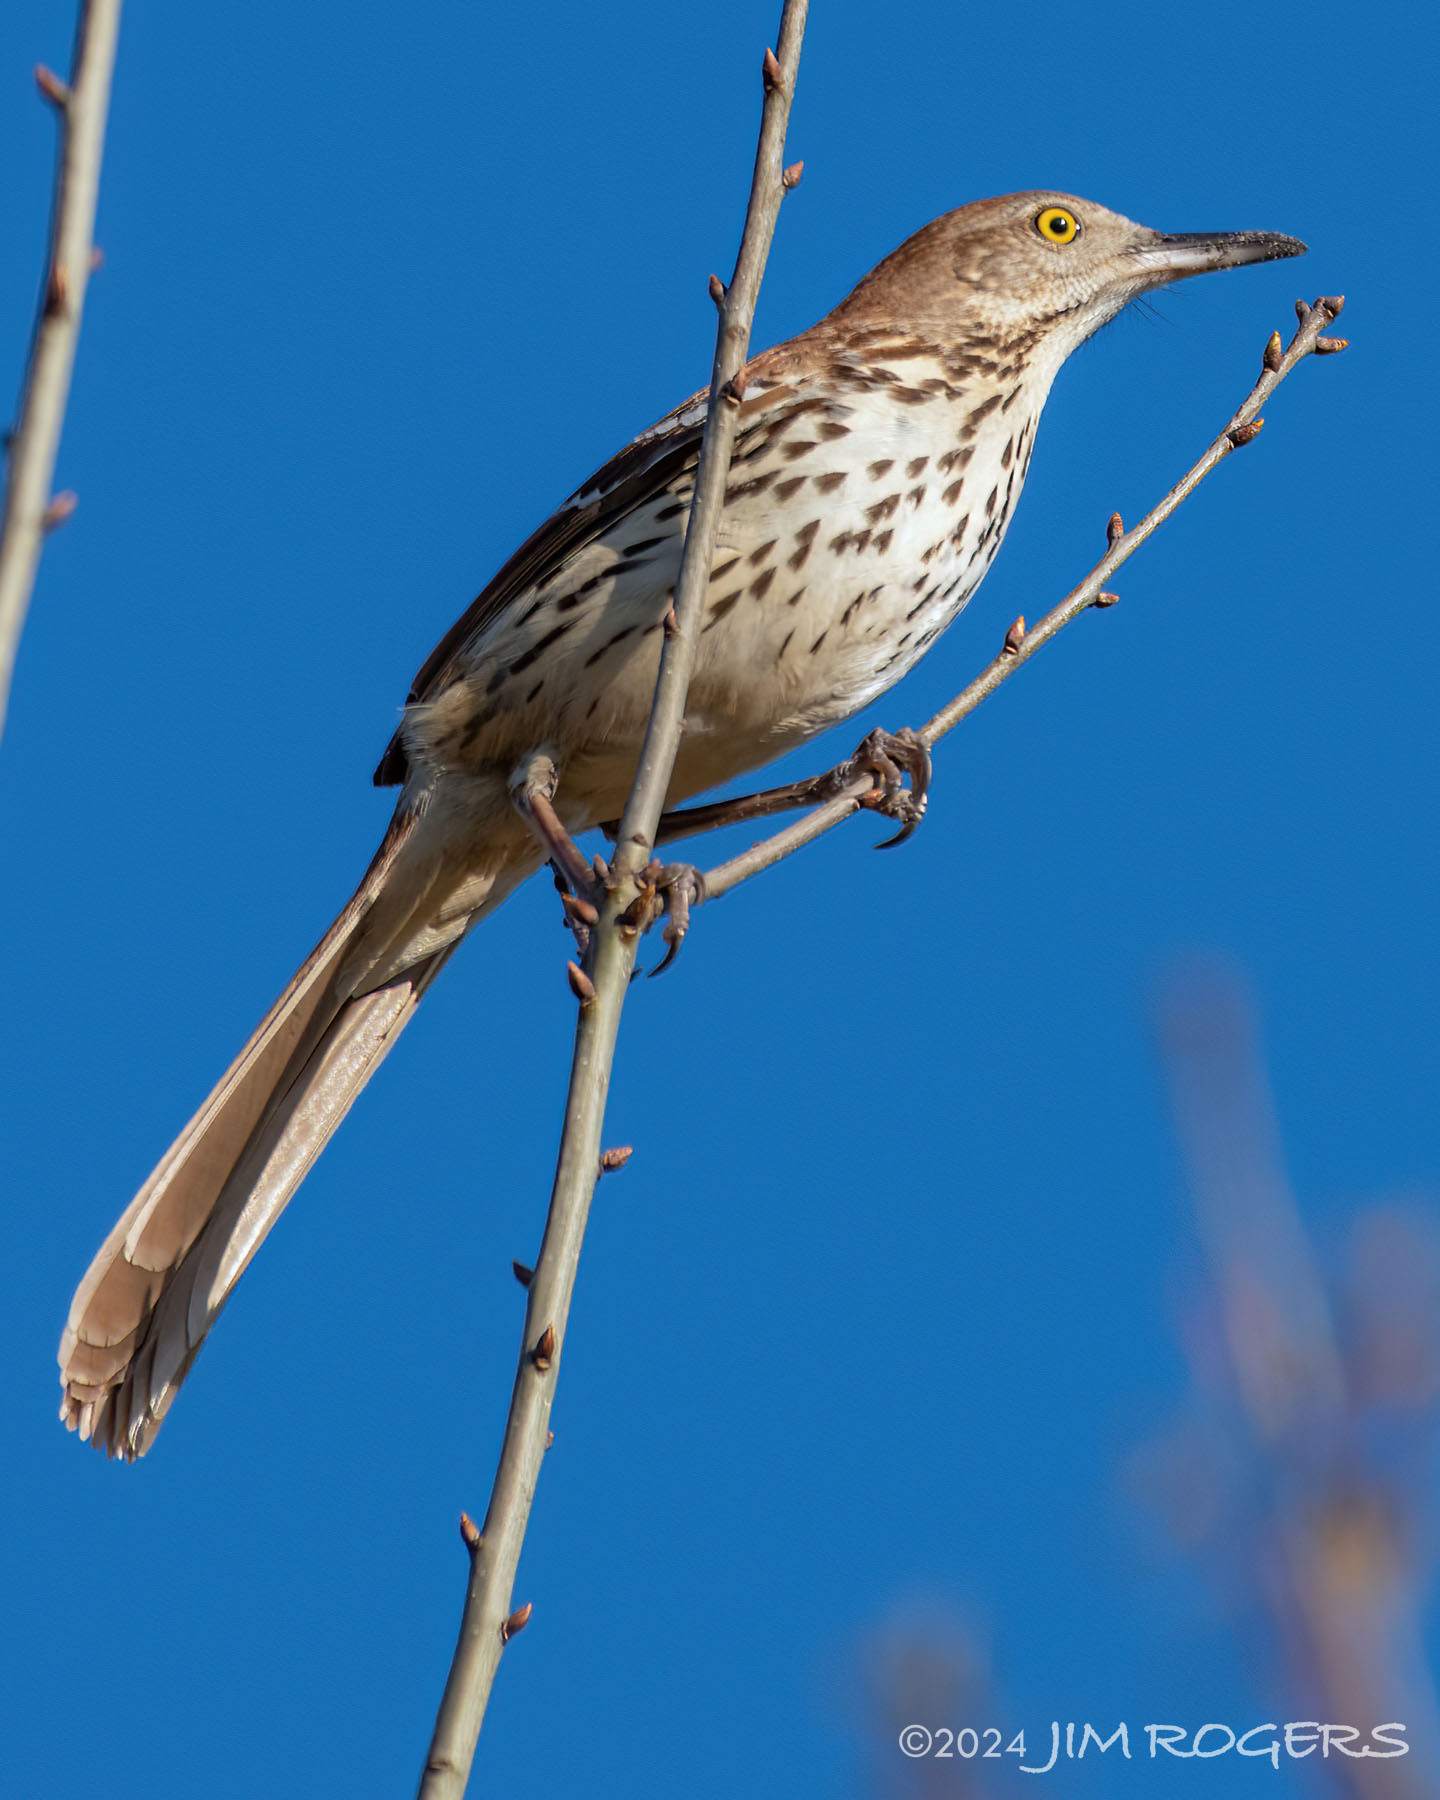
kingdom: Animalia
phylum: Chordata
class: Aves
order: Passeriformes
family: Mimidae
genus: Toxostoma
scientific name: Toxostoma rufum
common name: Brown thrasher
